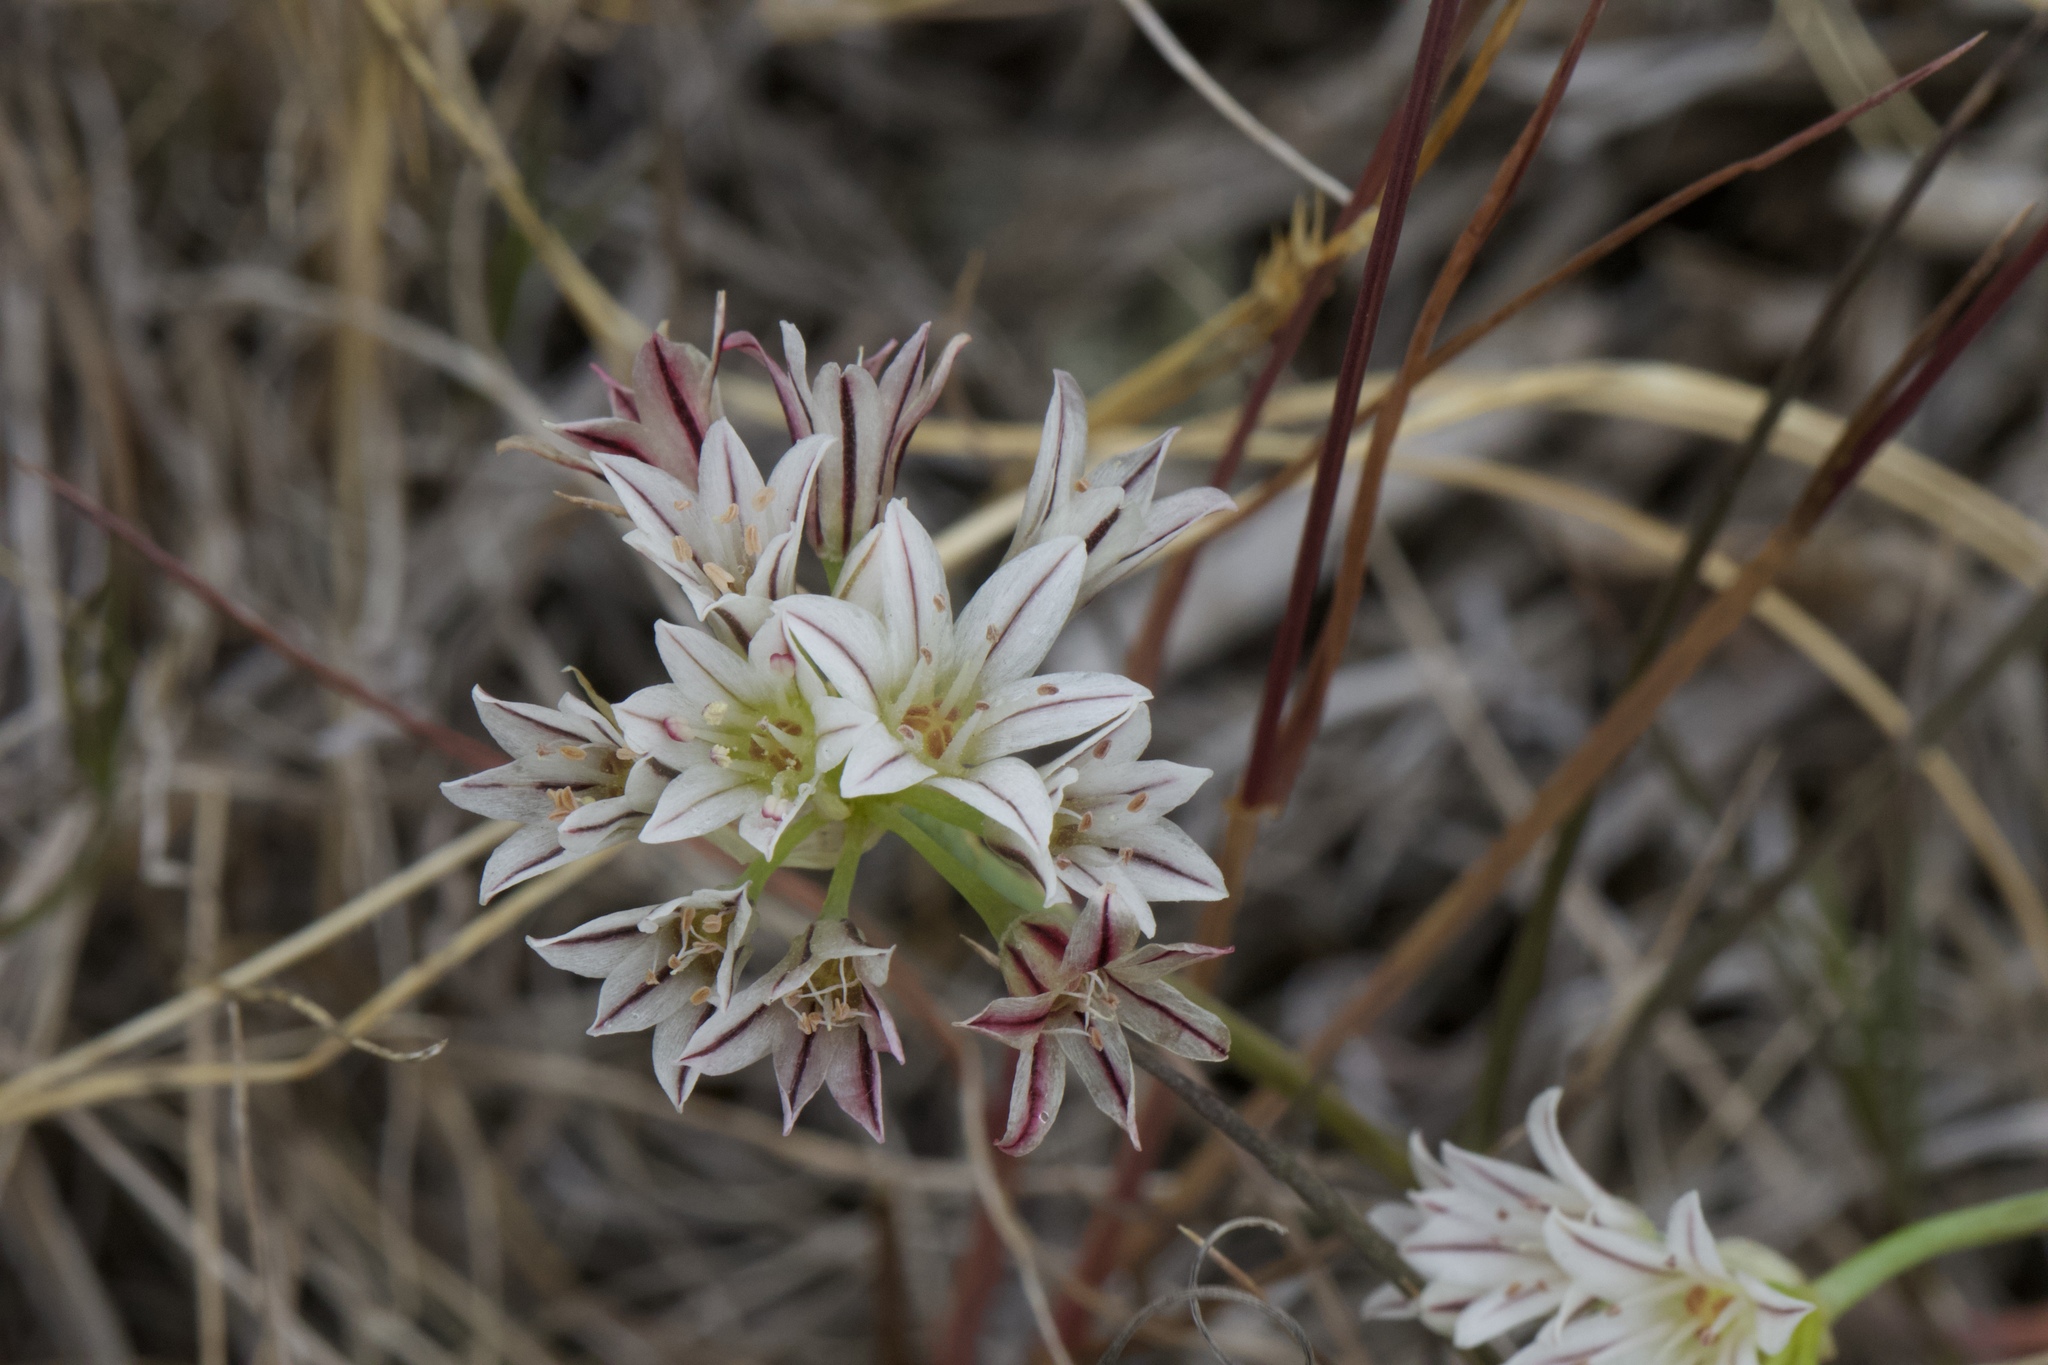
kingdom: Plantae
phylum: Tracheophyta
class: Liliopsida
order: Asparagales
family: Amaryllidaceae
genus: Allium
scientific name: Allium lacunosum
